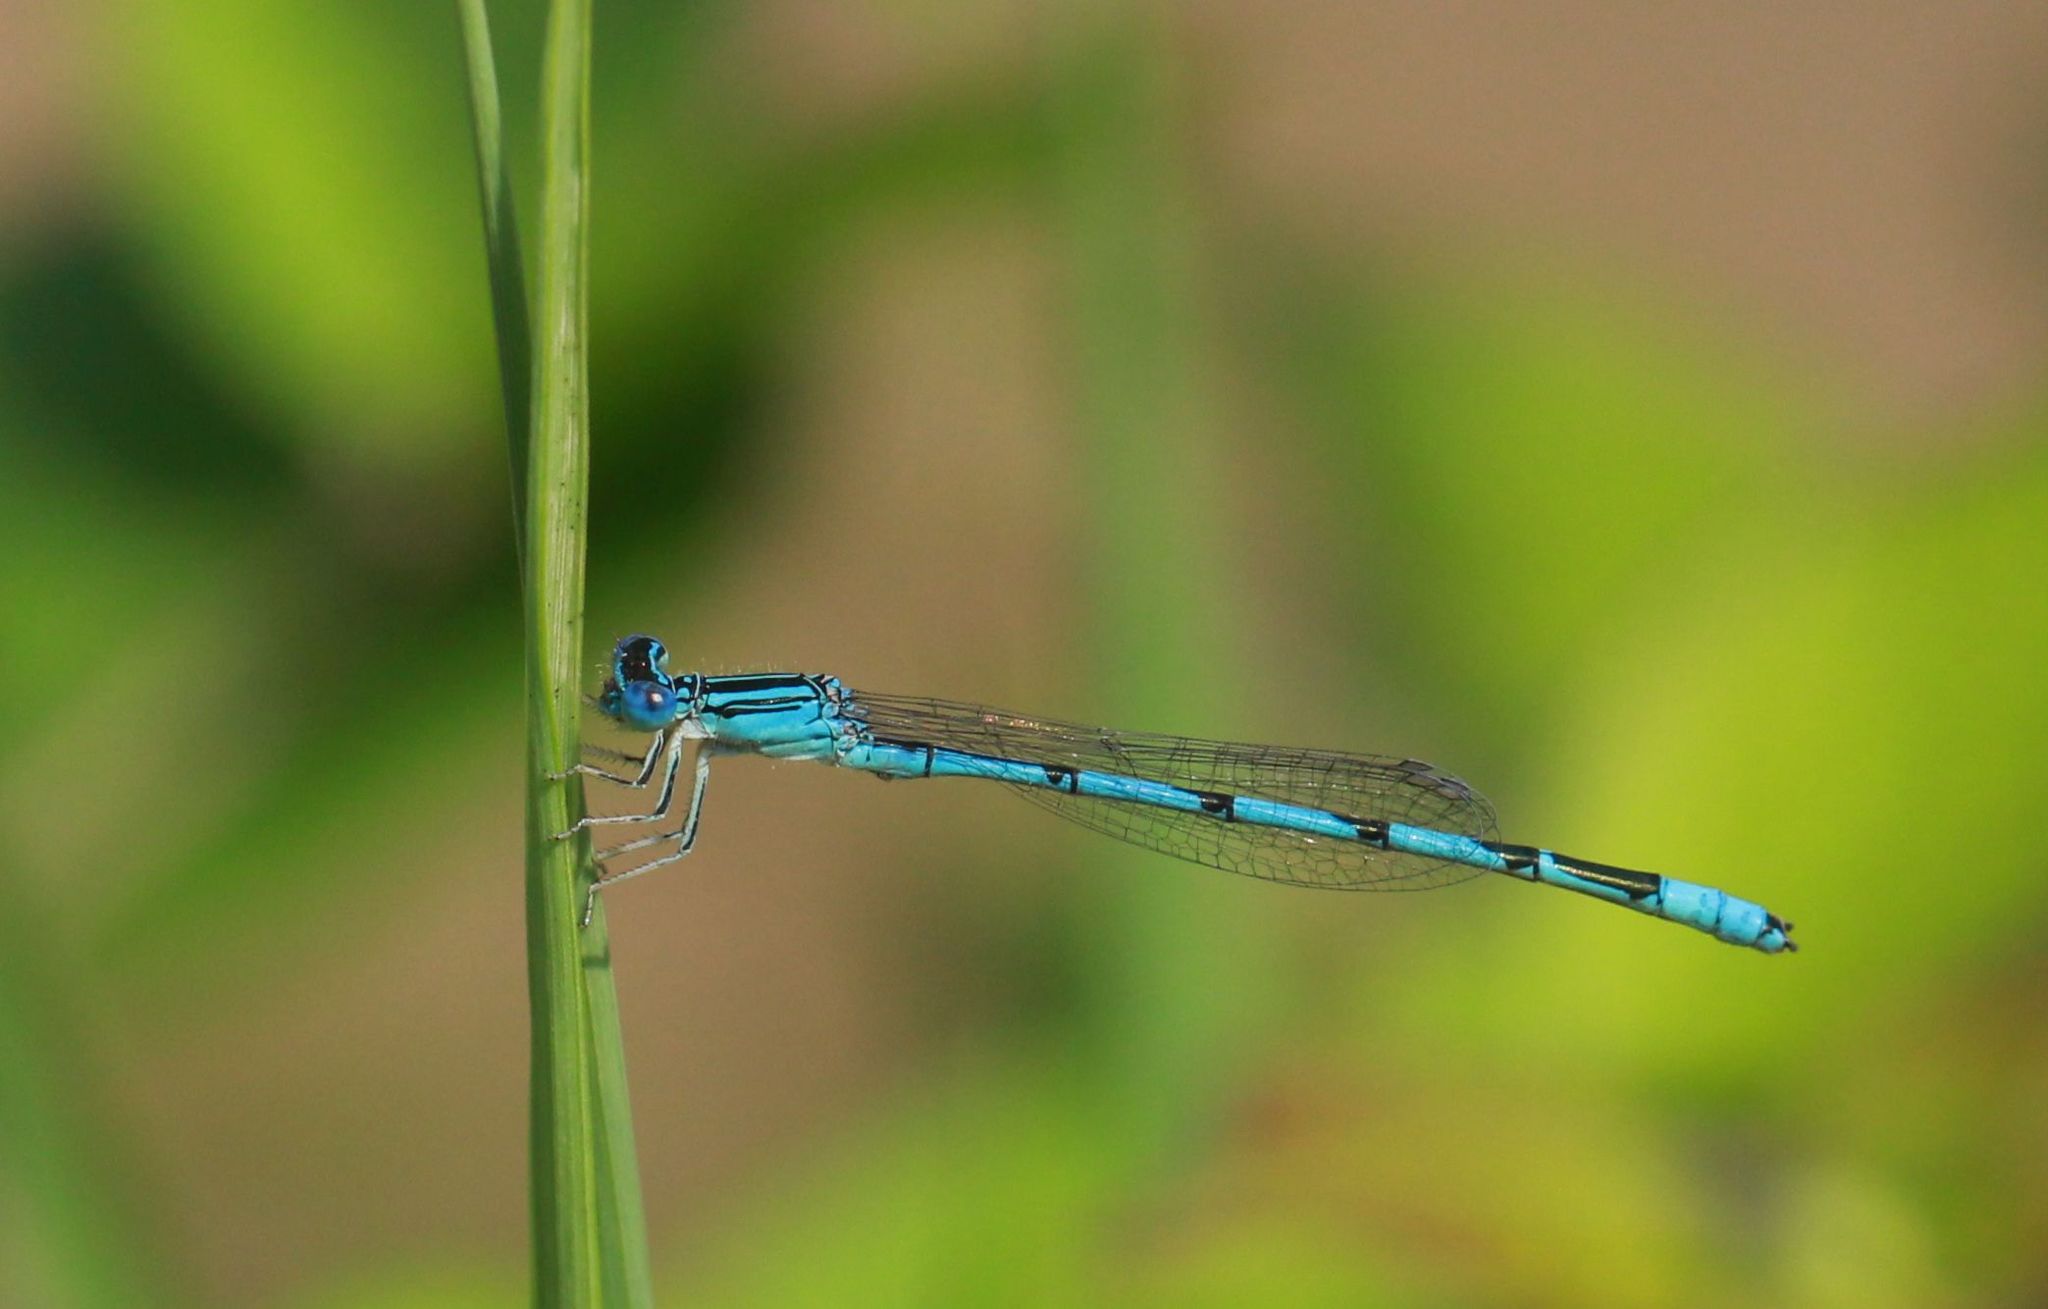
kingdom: Animalia
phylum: Arthropoda
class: Insecta
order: Odonata
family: Coenagrionidae
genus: Enallagma
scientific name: Enallagma basidens
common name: Double-striped bluet
